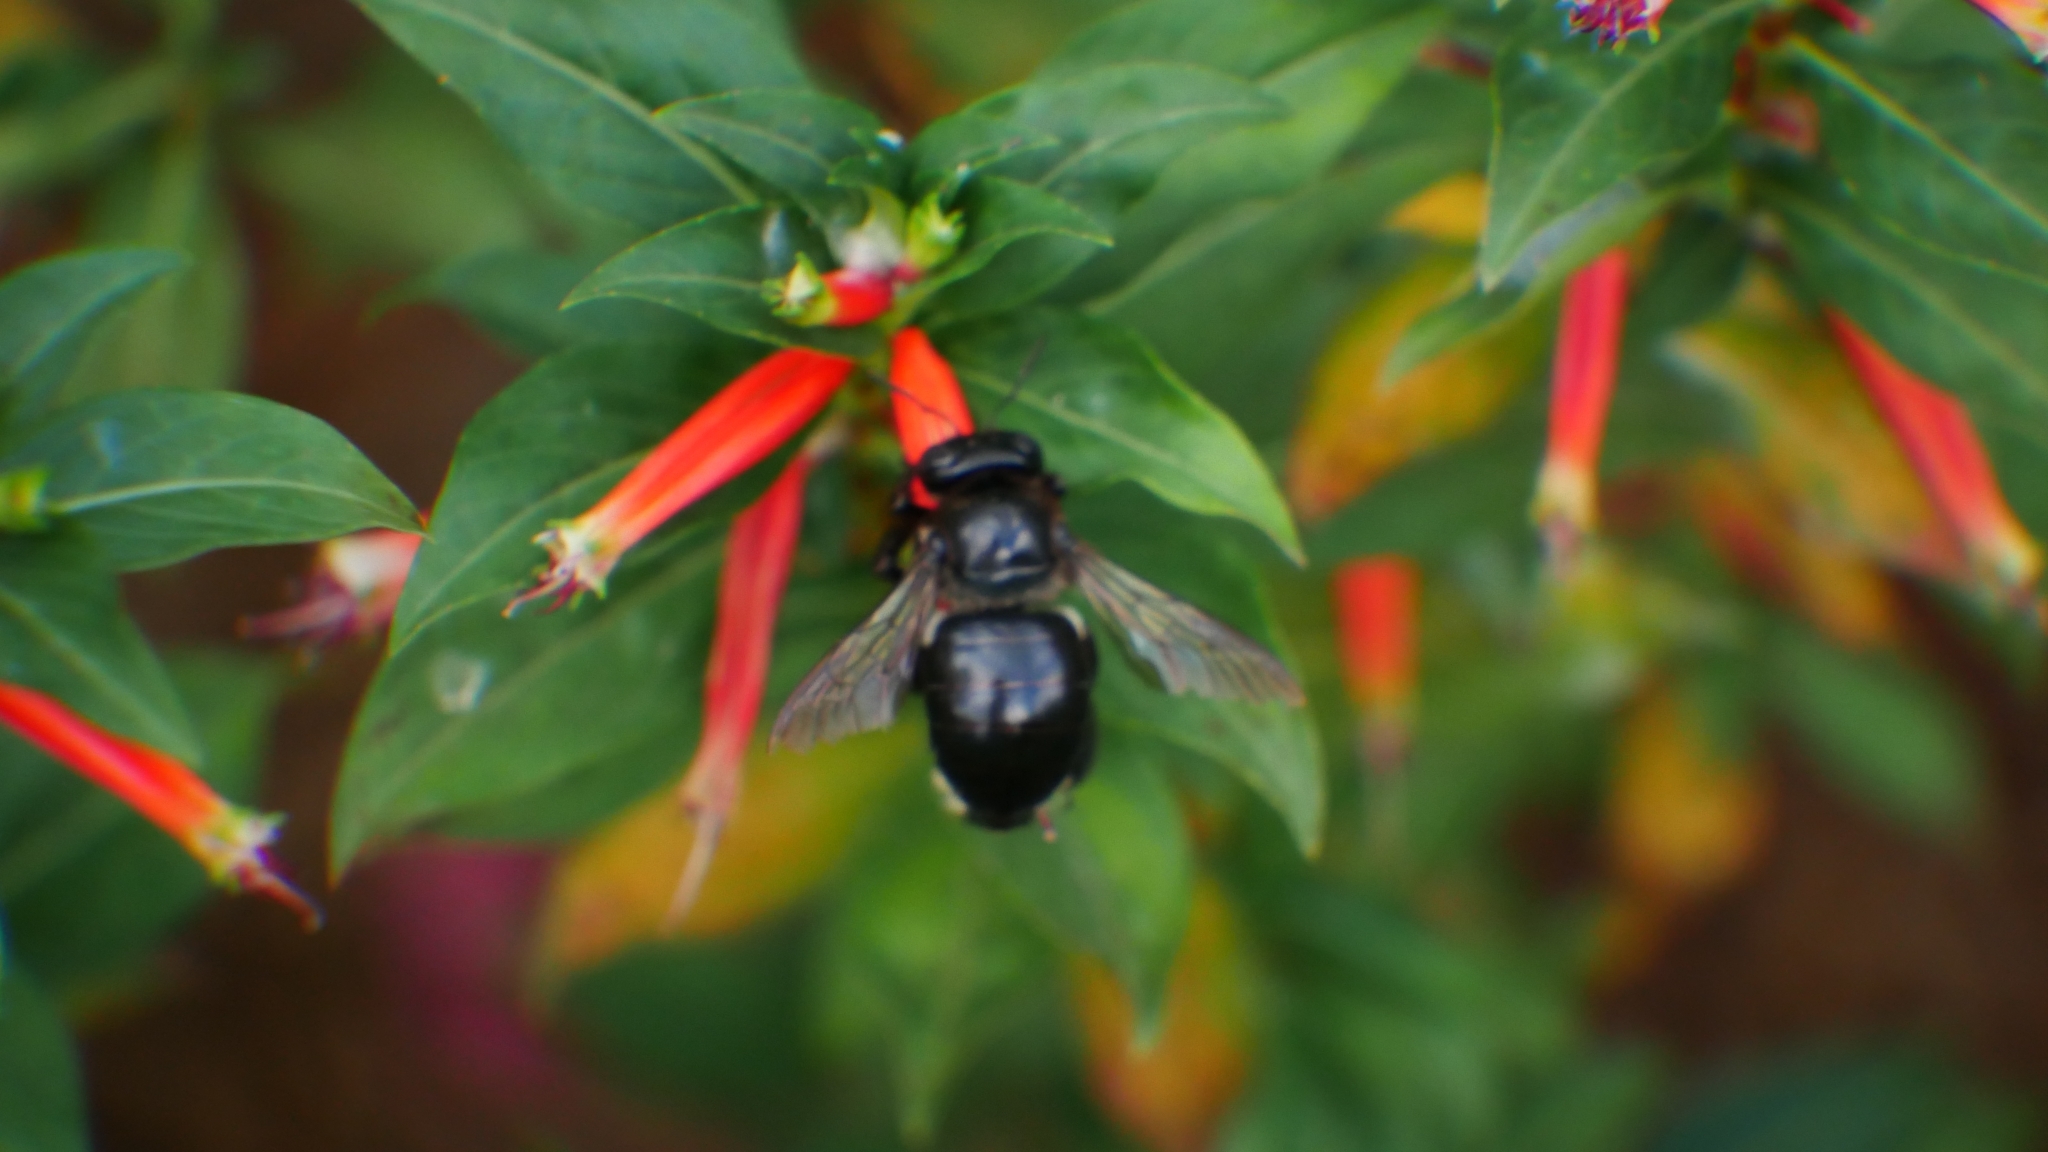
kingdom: Animalia
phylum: Arthropoda
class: Insecta
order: Hymenoptera
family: Apidae
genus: Xylocopa
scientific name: Xylocopa micans
